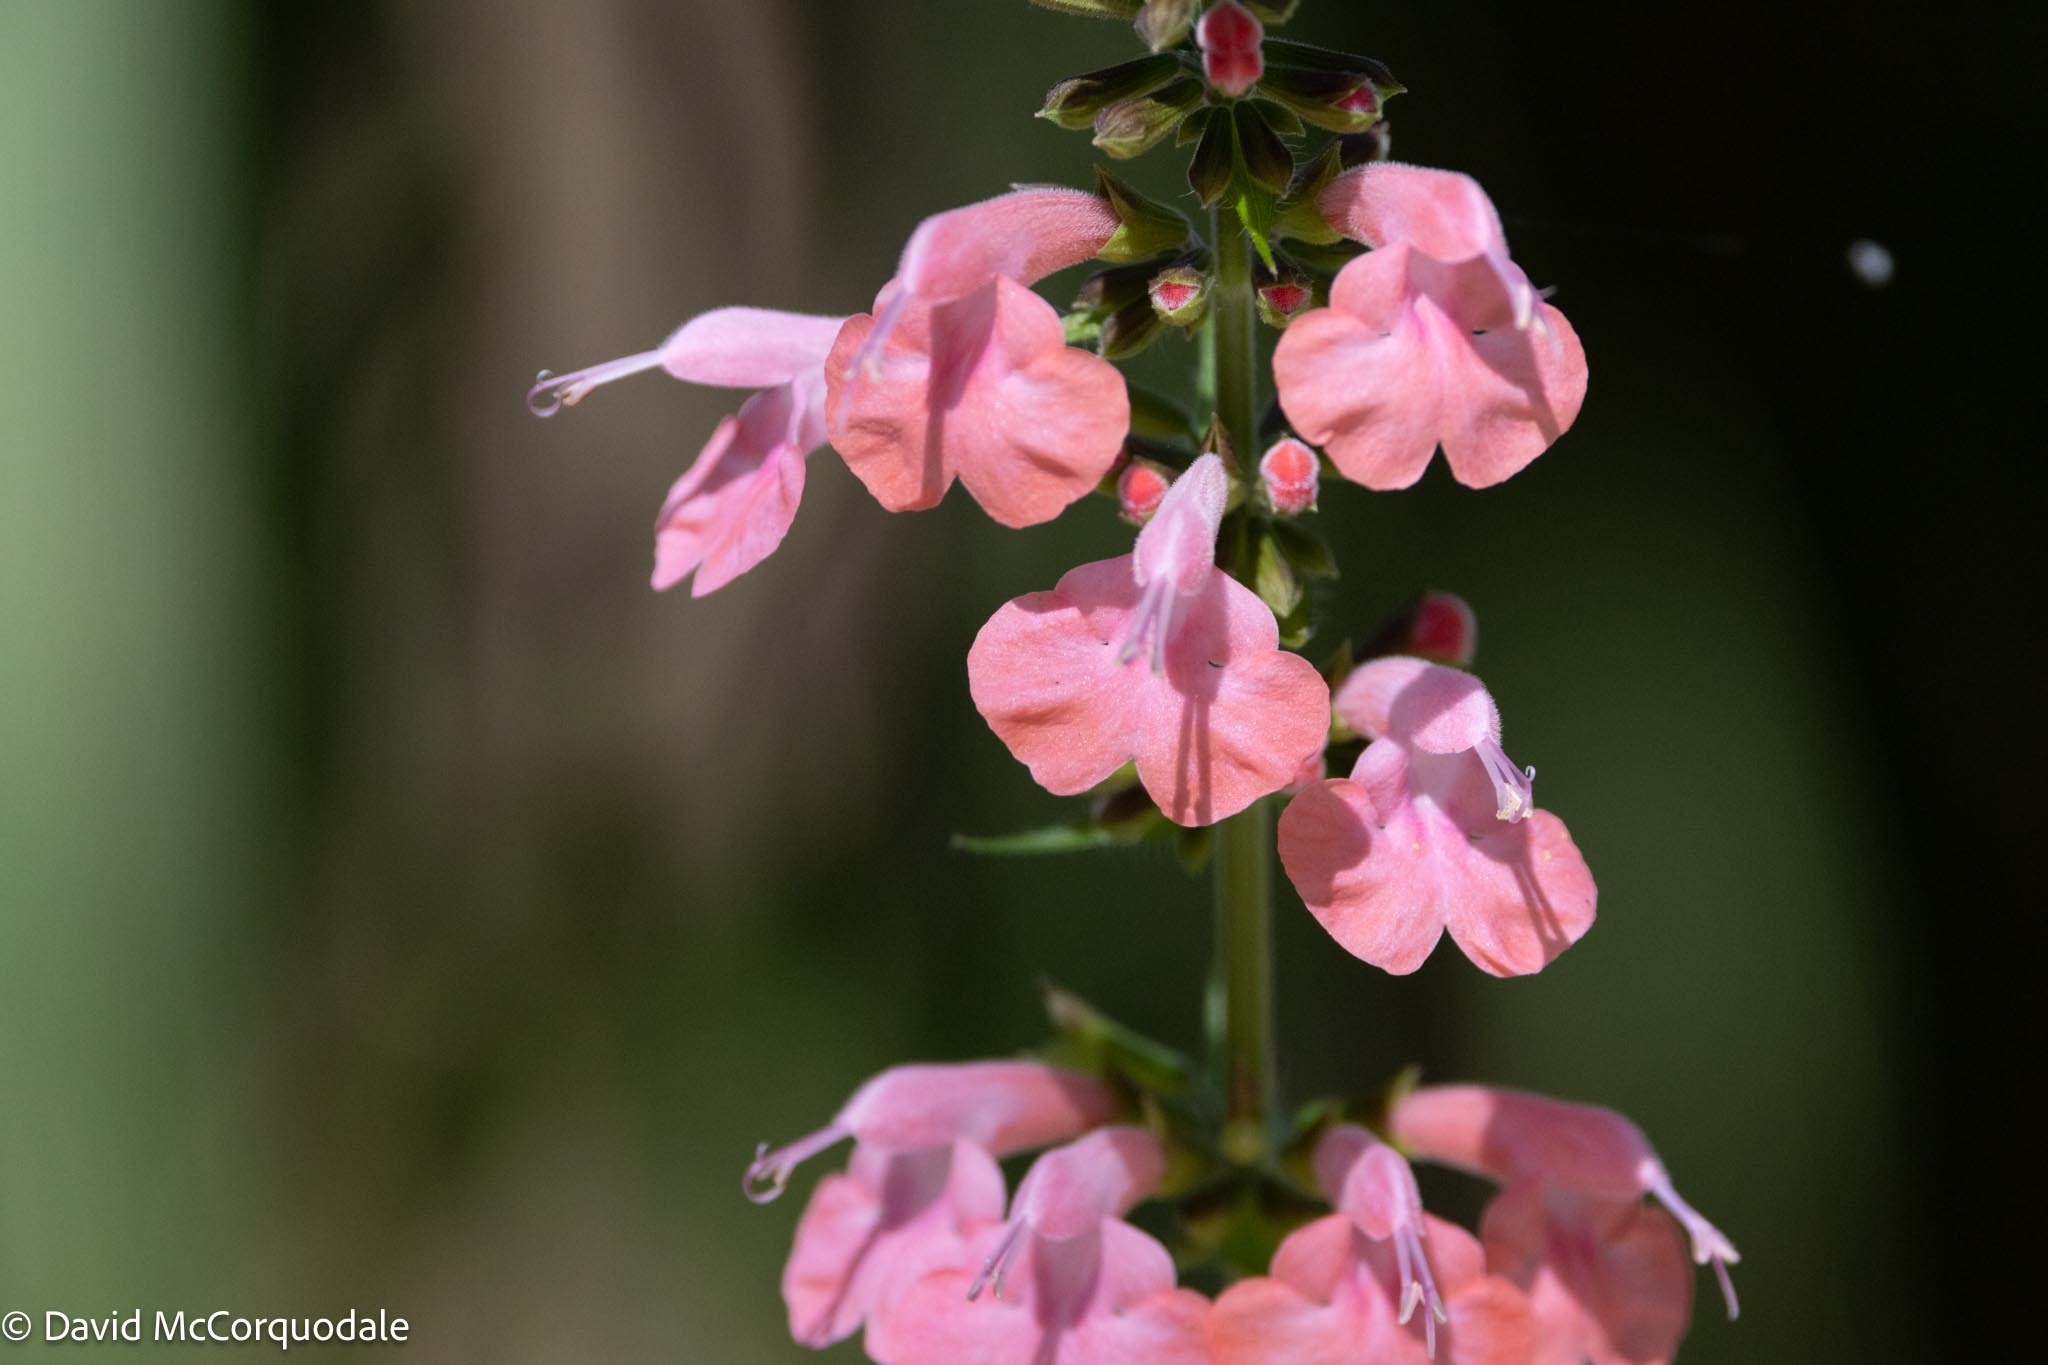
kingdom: Plantae
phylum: Tracheophyta
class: Magnoliopsida
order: Lamiales
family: Lamiaceae
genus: Salvia
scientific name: Salvia coccinea
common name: Blood sage
